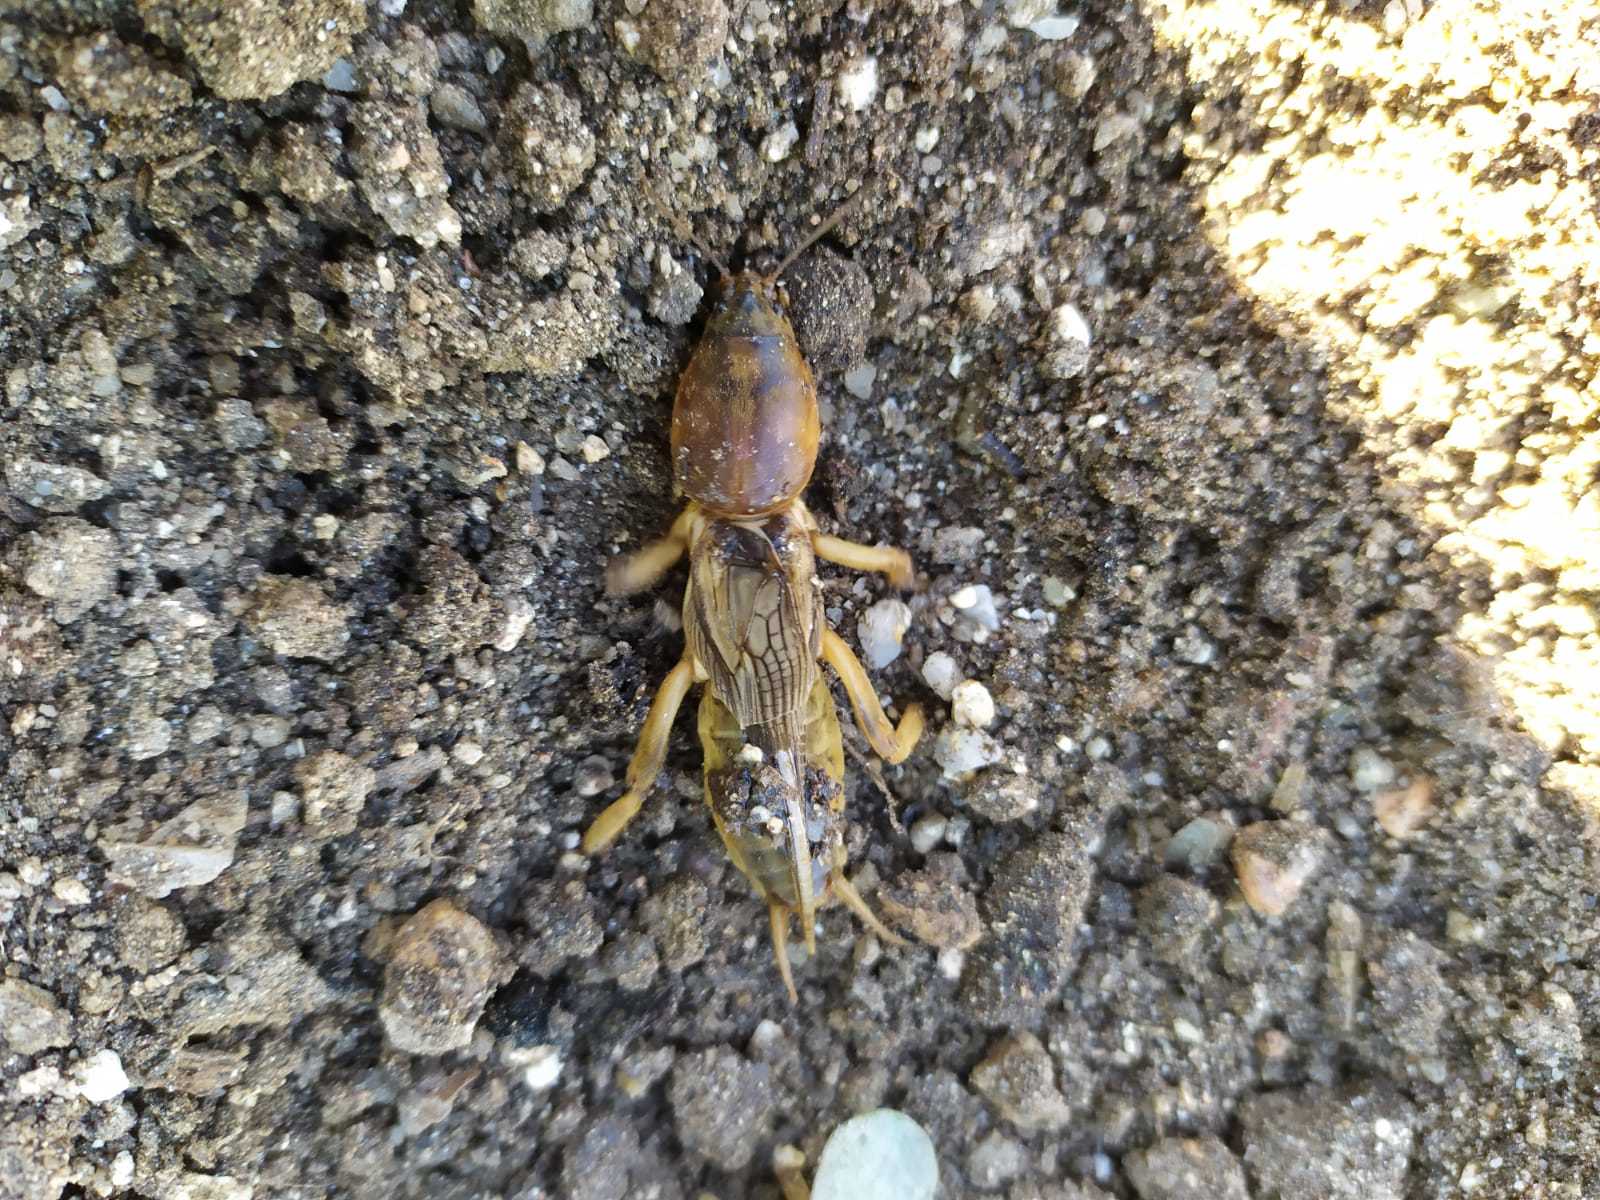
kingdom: Animalia
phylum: Arthropoda
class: Insecta
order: Orthoptera
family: Gryllotalpidae
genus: Gryllotalpa
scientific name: Gryllotalpa gryllotalpa
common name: European mole cricket
